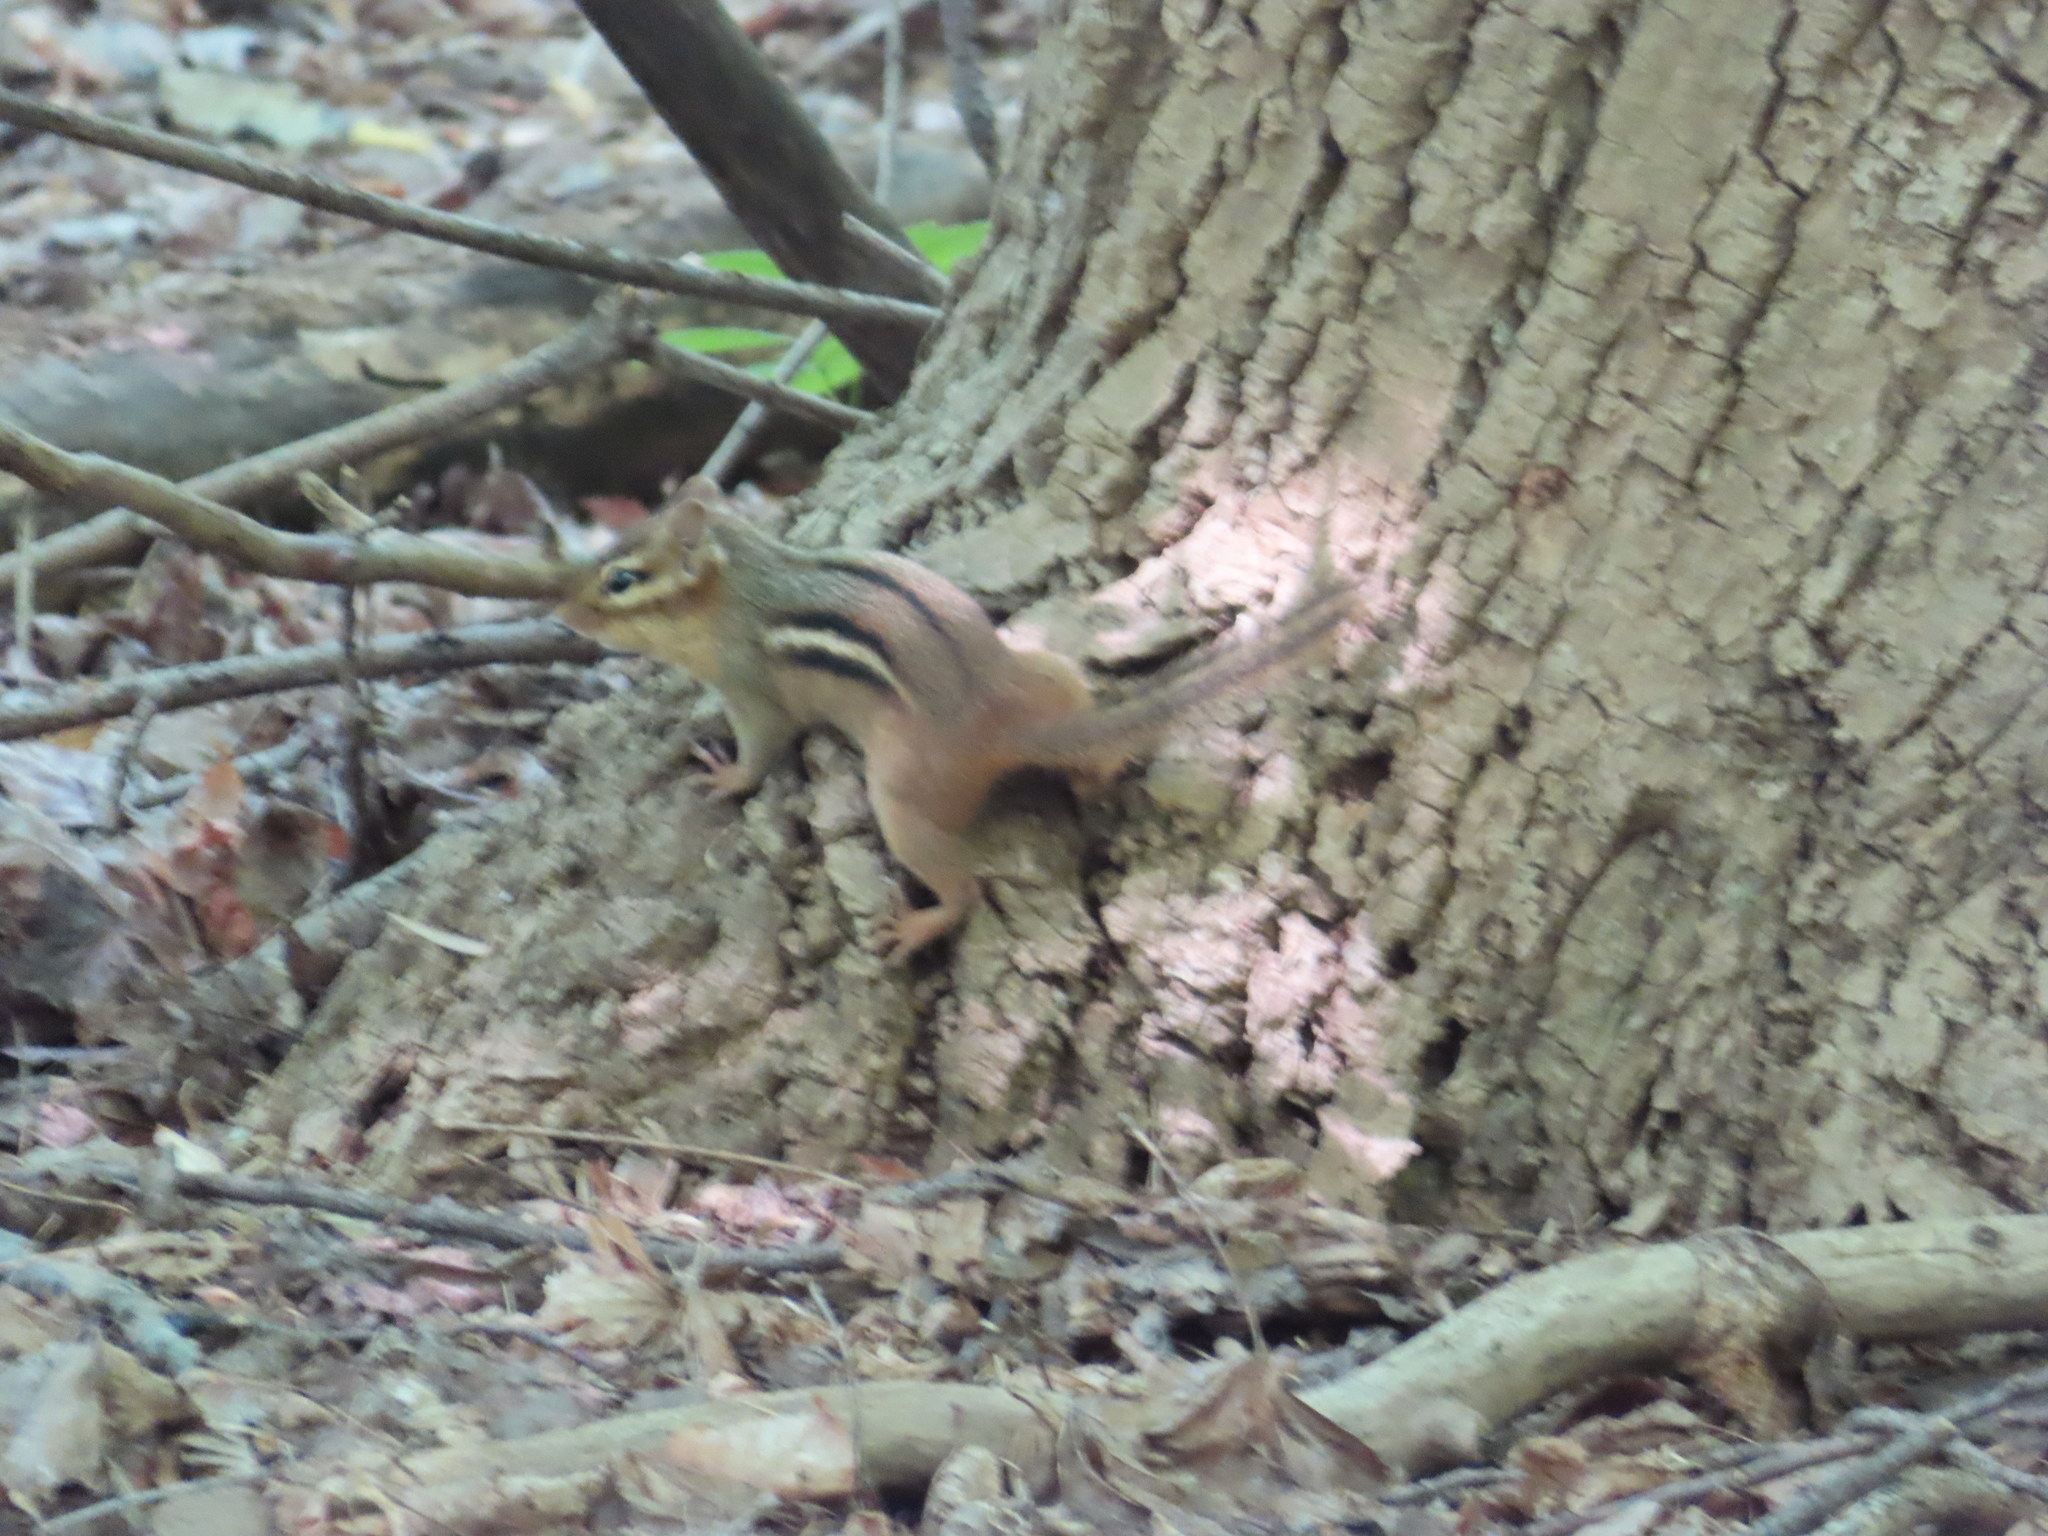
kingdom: Animalia
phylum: Chordata
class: Mammalia
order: Rodentia
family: Sciuridae
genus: Tamias
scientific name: Tamias striatus
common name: Eastern chipmunk
